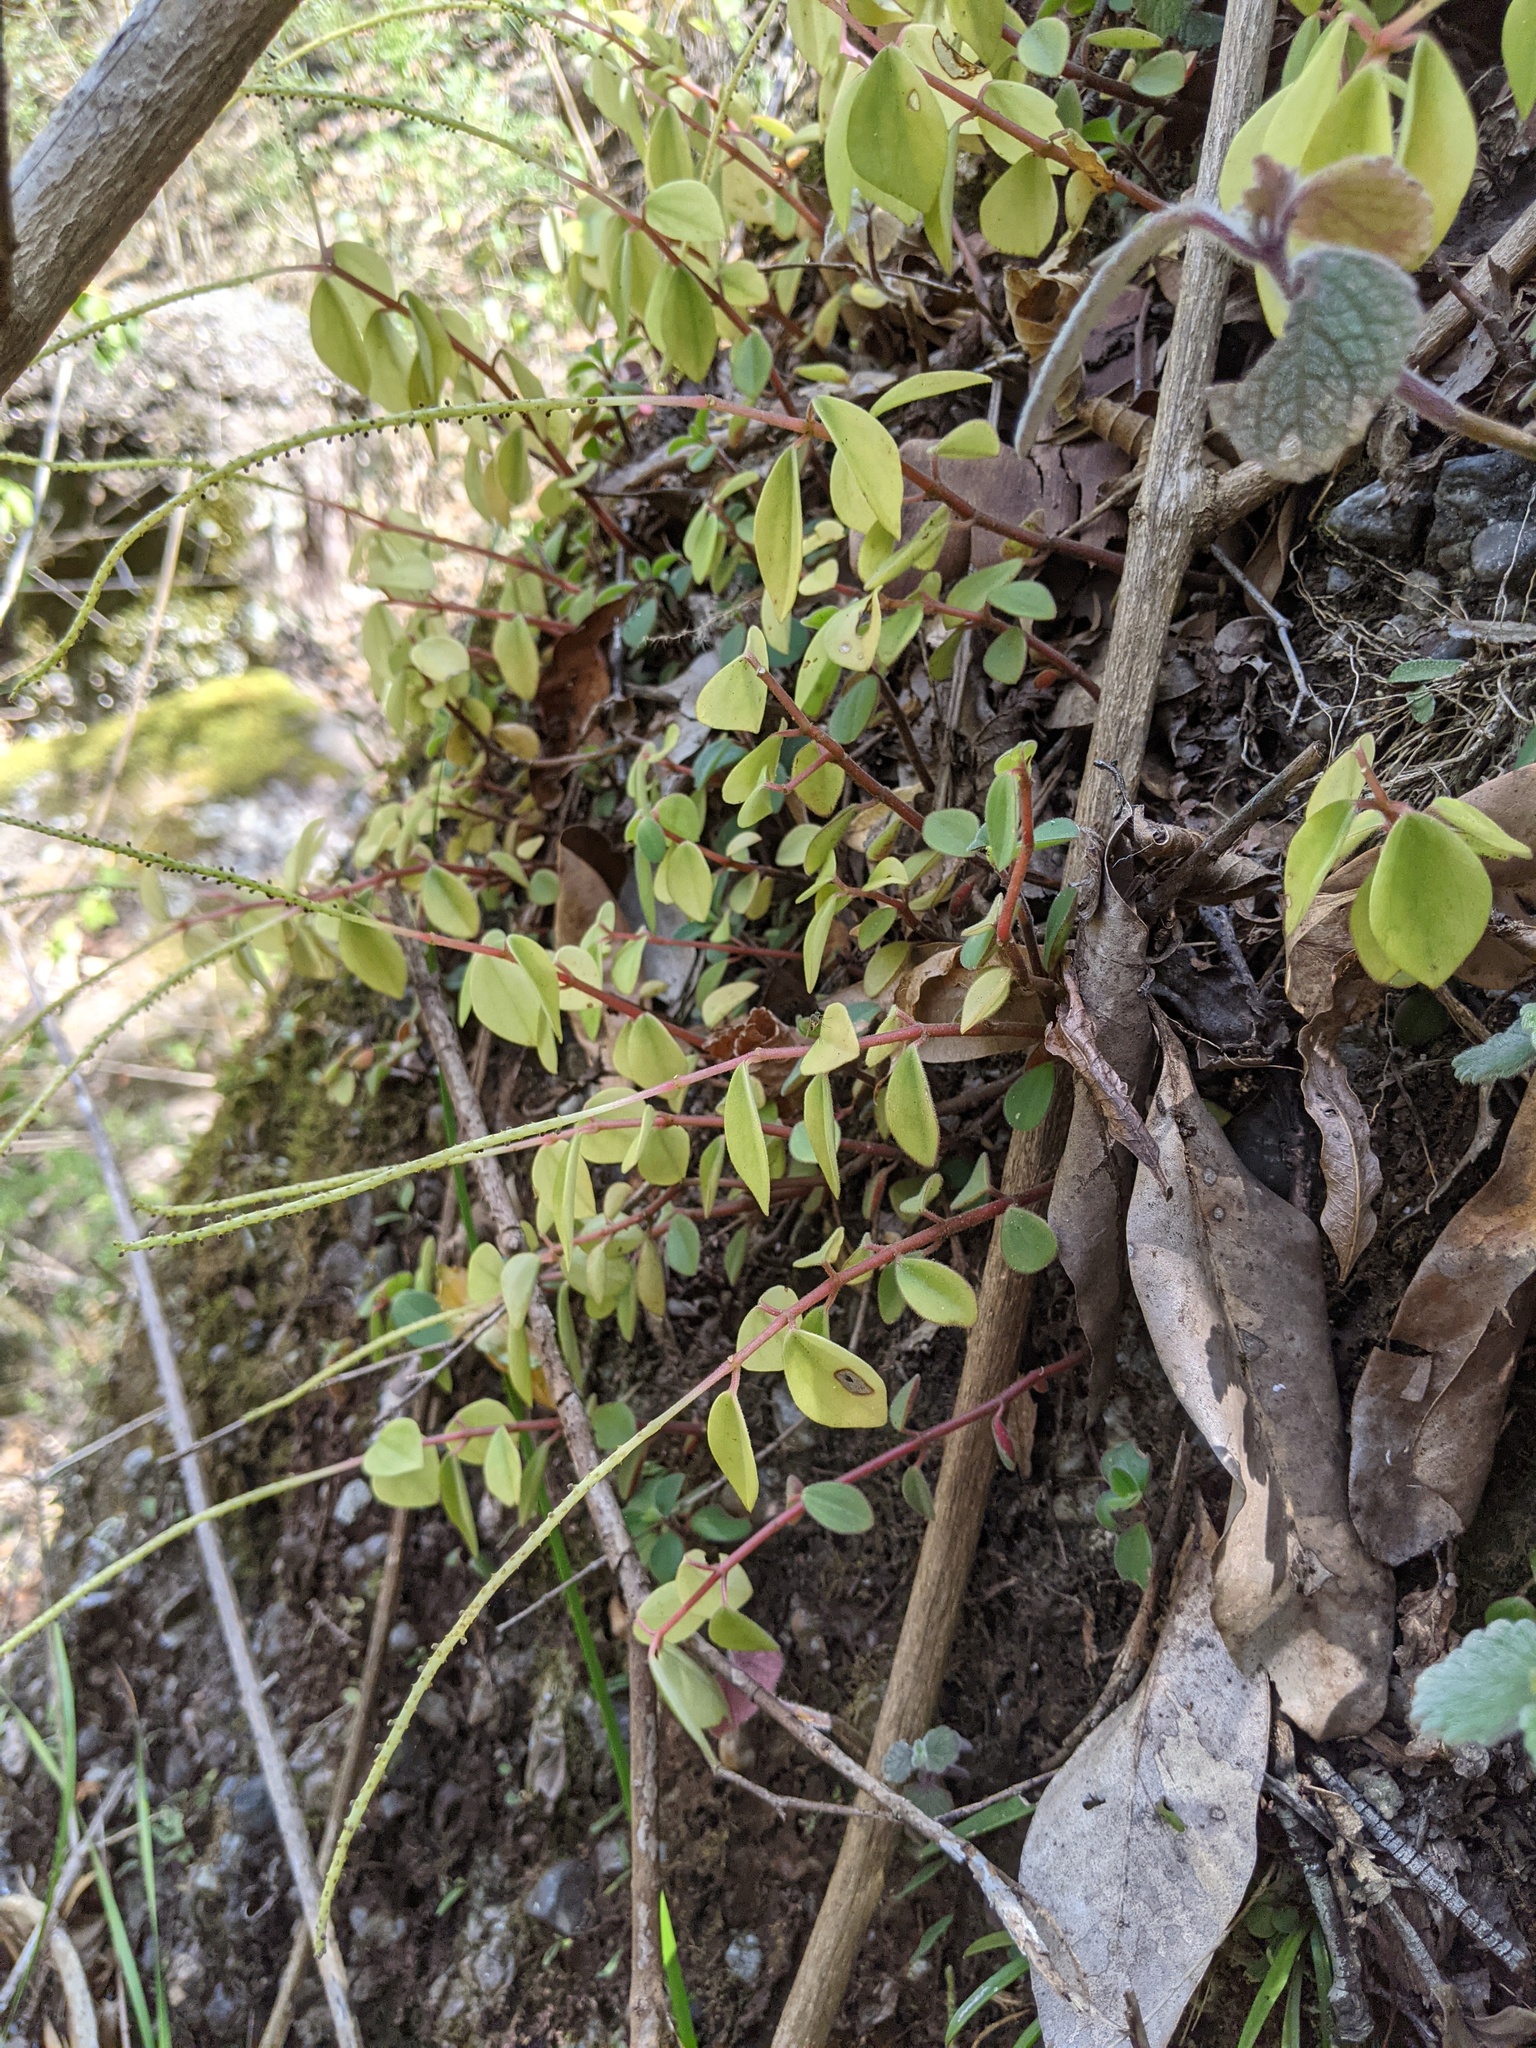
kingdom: Plantae
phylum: Tracheophyta
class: Magnoliopsida
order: Piperales
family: Piperaceae
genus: Peperomia
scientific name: Peperomia leptostachya
